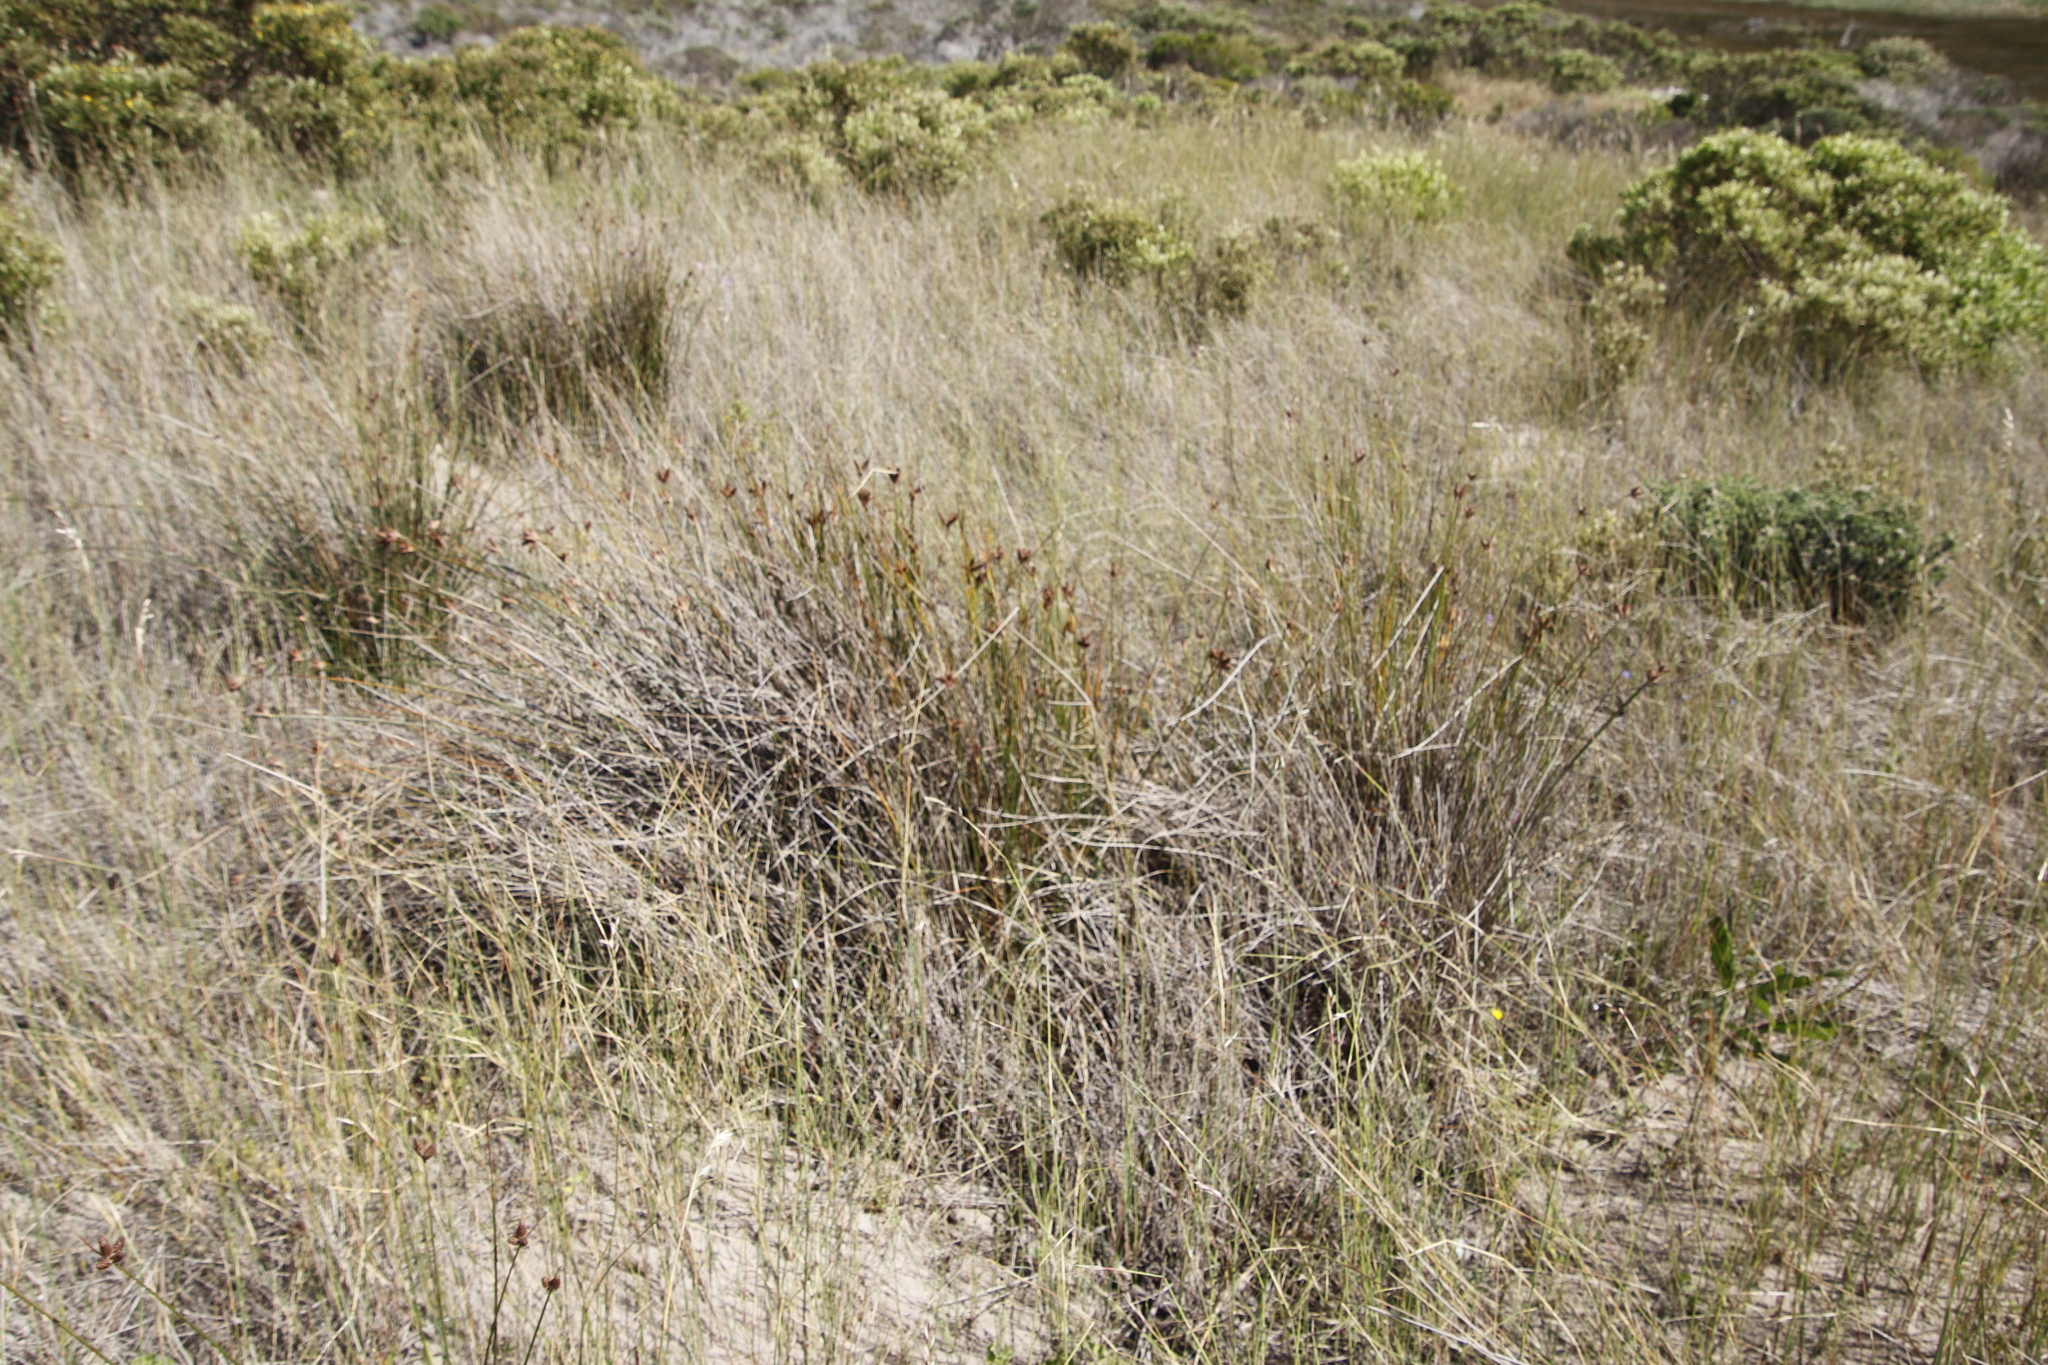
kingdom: Plantae
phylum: Tracheophyta
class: Liliopsida
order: Poales
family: Cyperaceae
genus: Hellmuthia
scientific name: Hellmuthia membranacea
